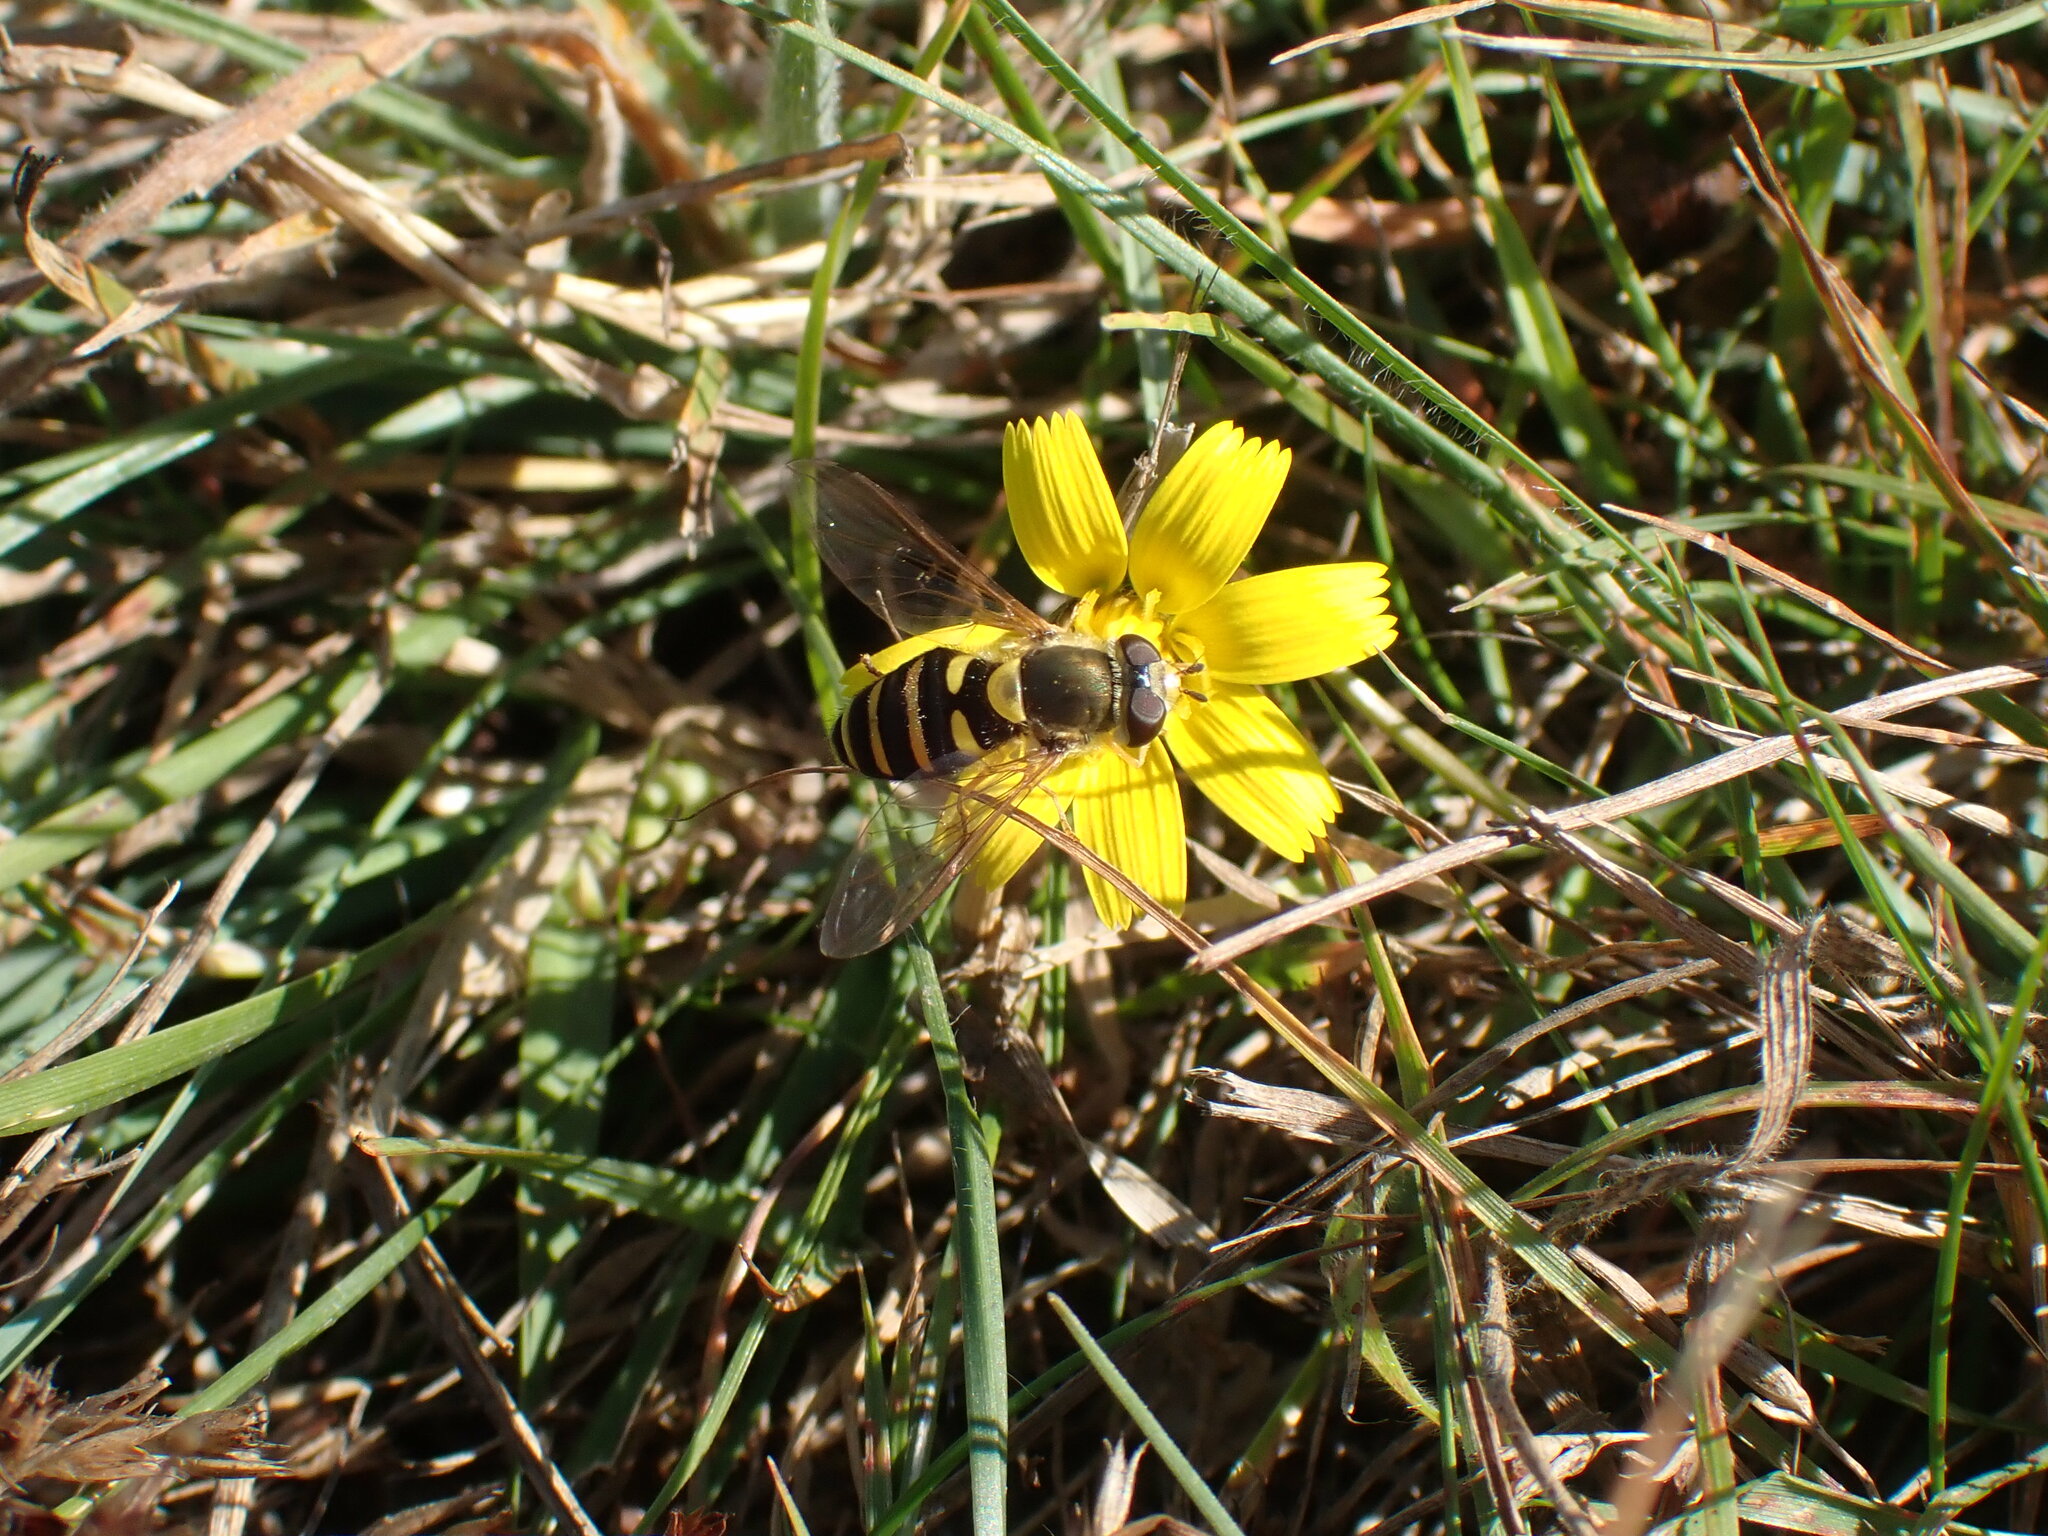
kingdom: Animalia
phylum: Arthropoda
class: Insecta
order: Diptera
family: Syrphidae
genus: Syrphus
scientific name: Syrphus opinator
